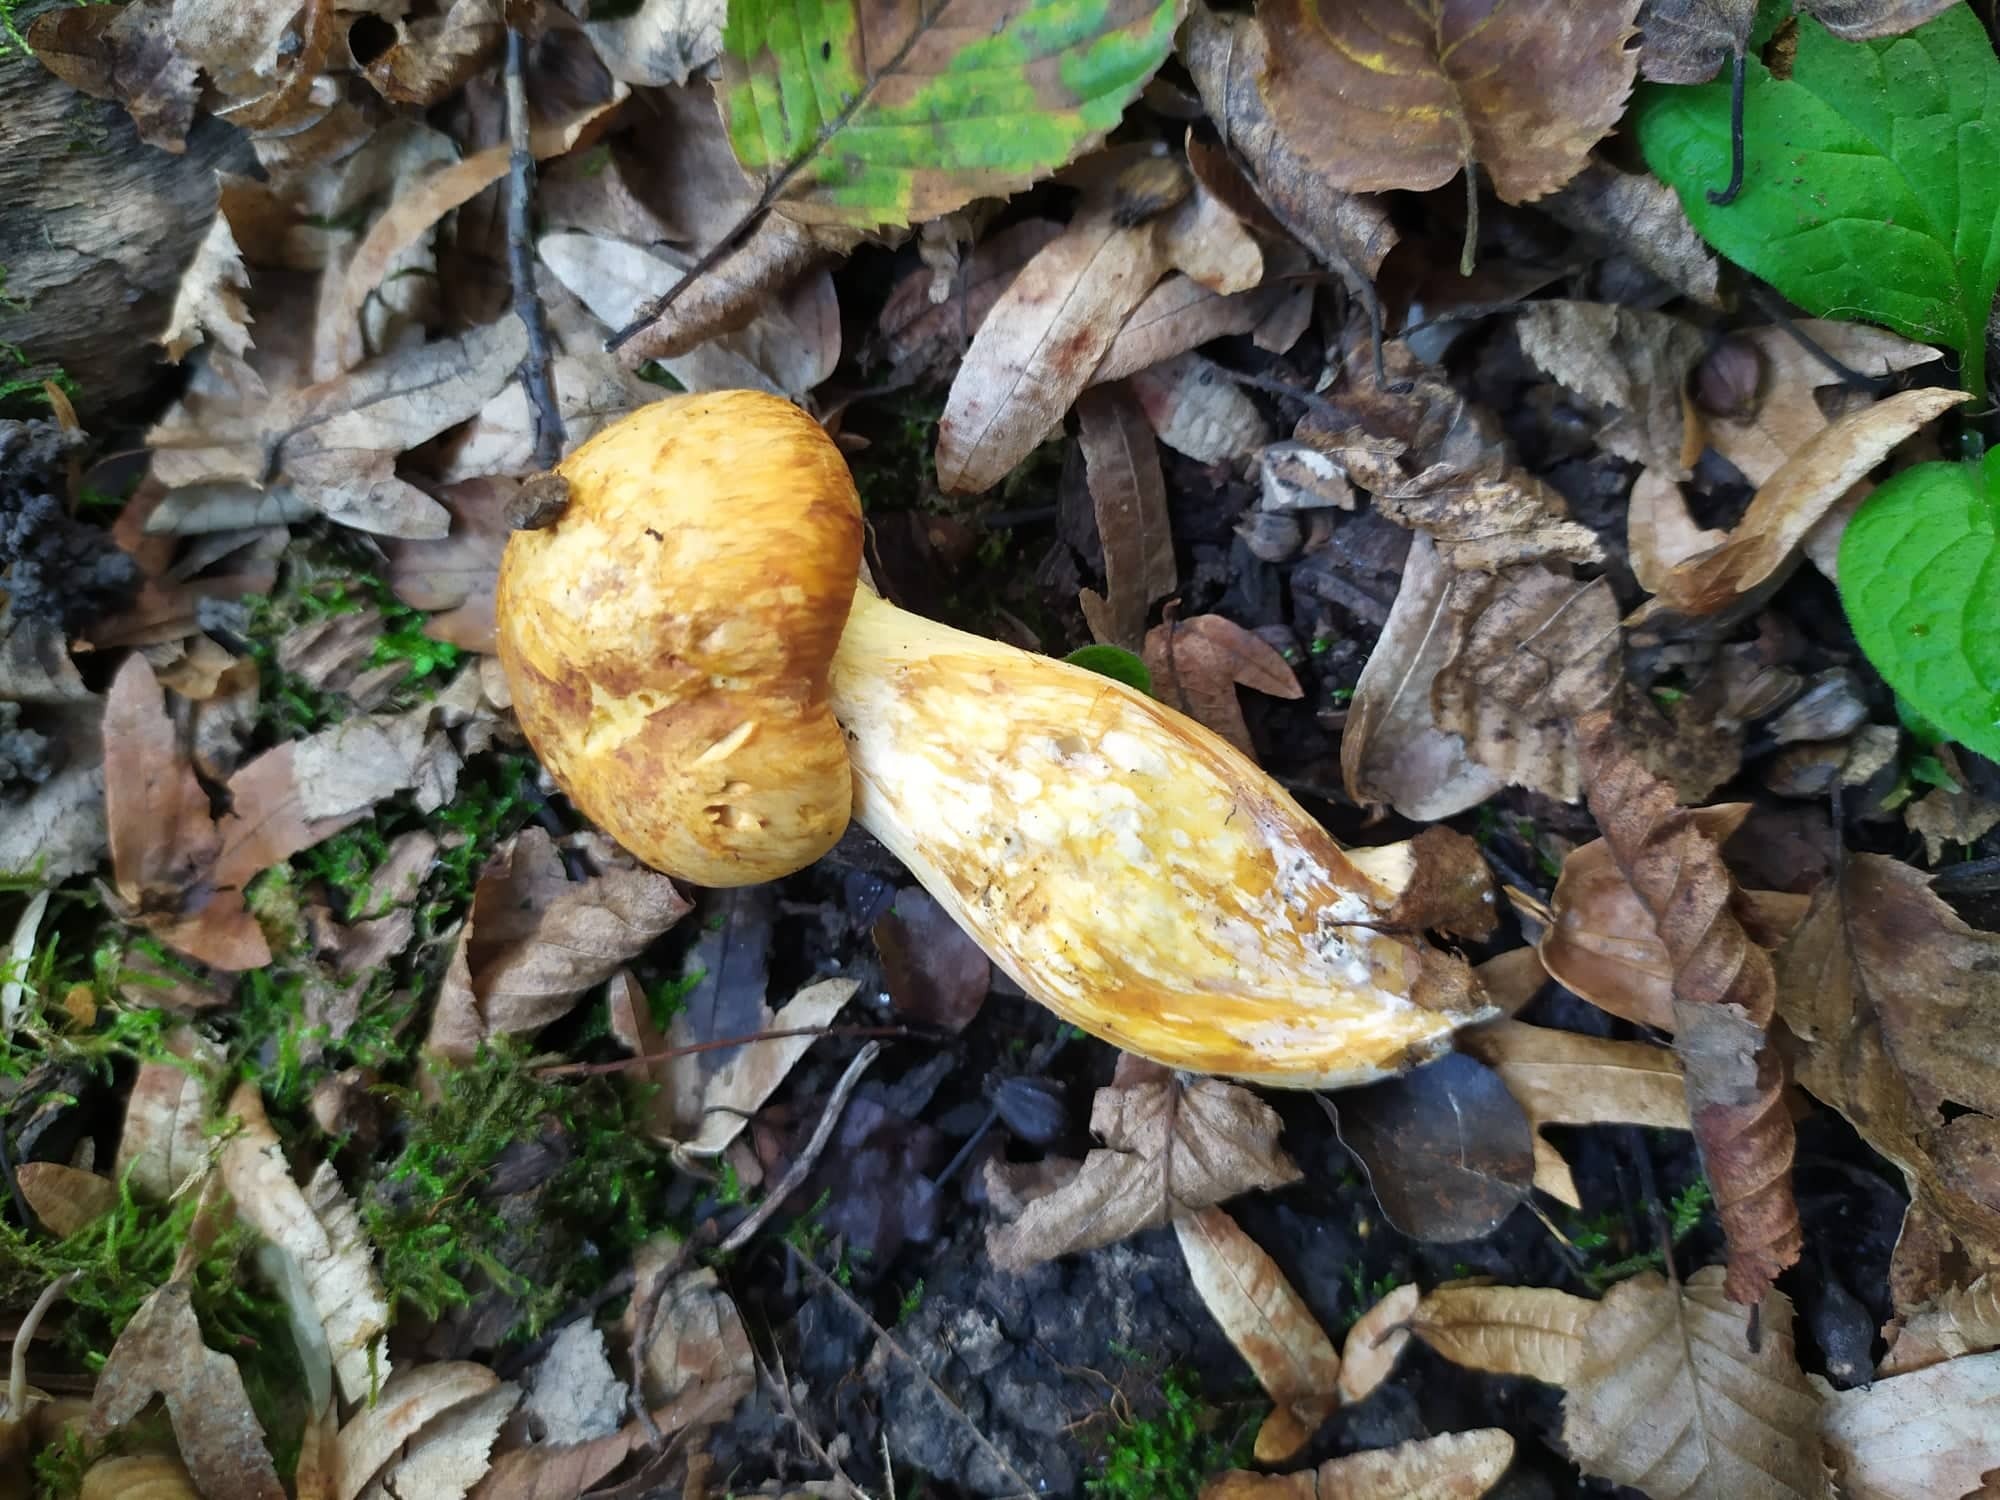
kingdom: Fungi
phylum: Basidiomycota
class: Agaricomycetes
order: Agaricales
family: Hymenogastraceae
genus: Gymnopilus
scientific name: Gymnopilus junonius
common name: Spectacular rustgill
